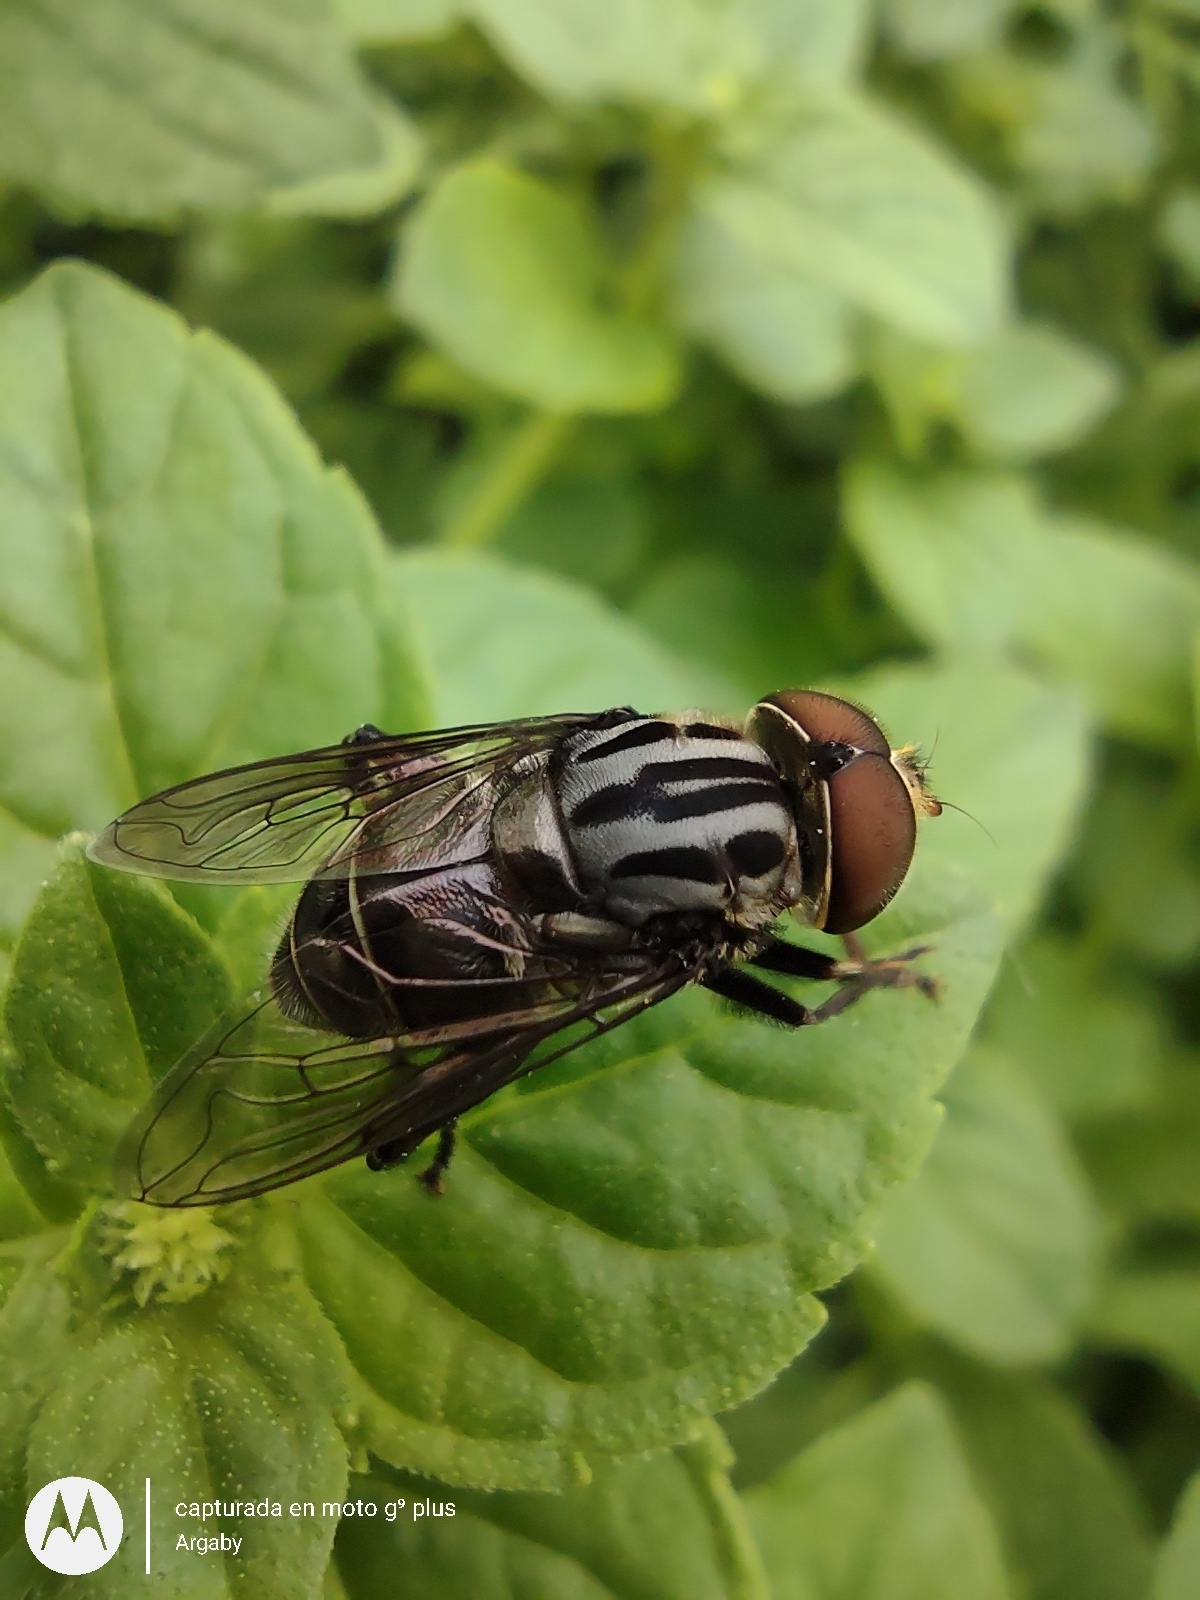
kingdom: Animalia
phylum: Arthropoda
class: Insecta
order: Diptera
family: Syrphidae
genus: Palpada
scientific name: Palpada furcata
